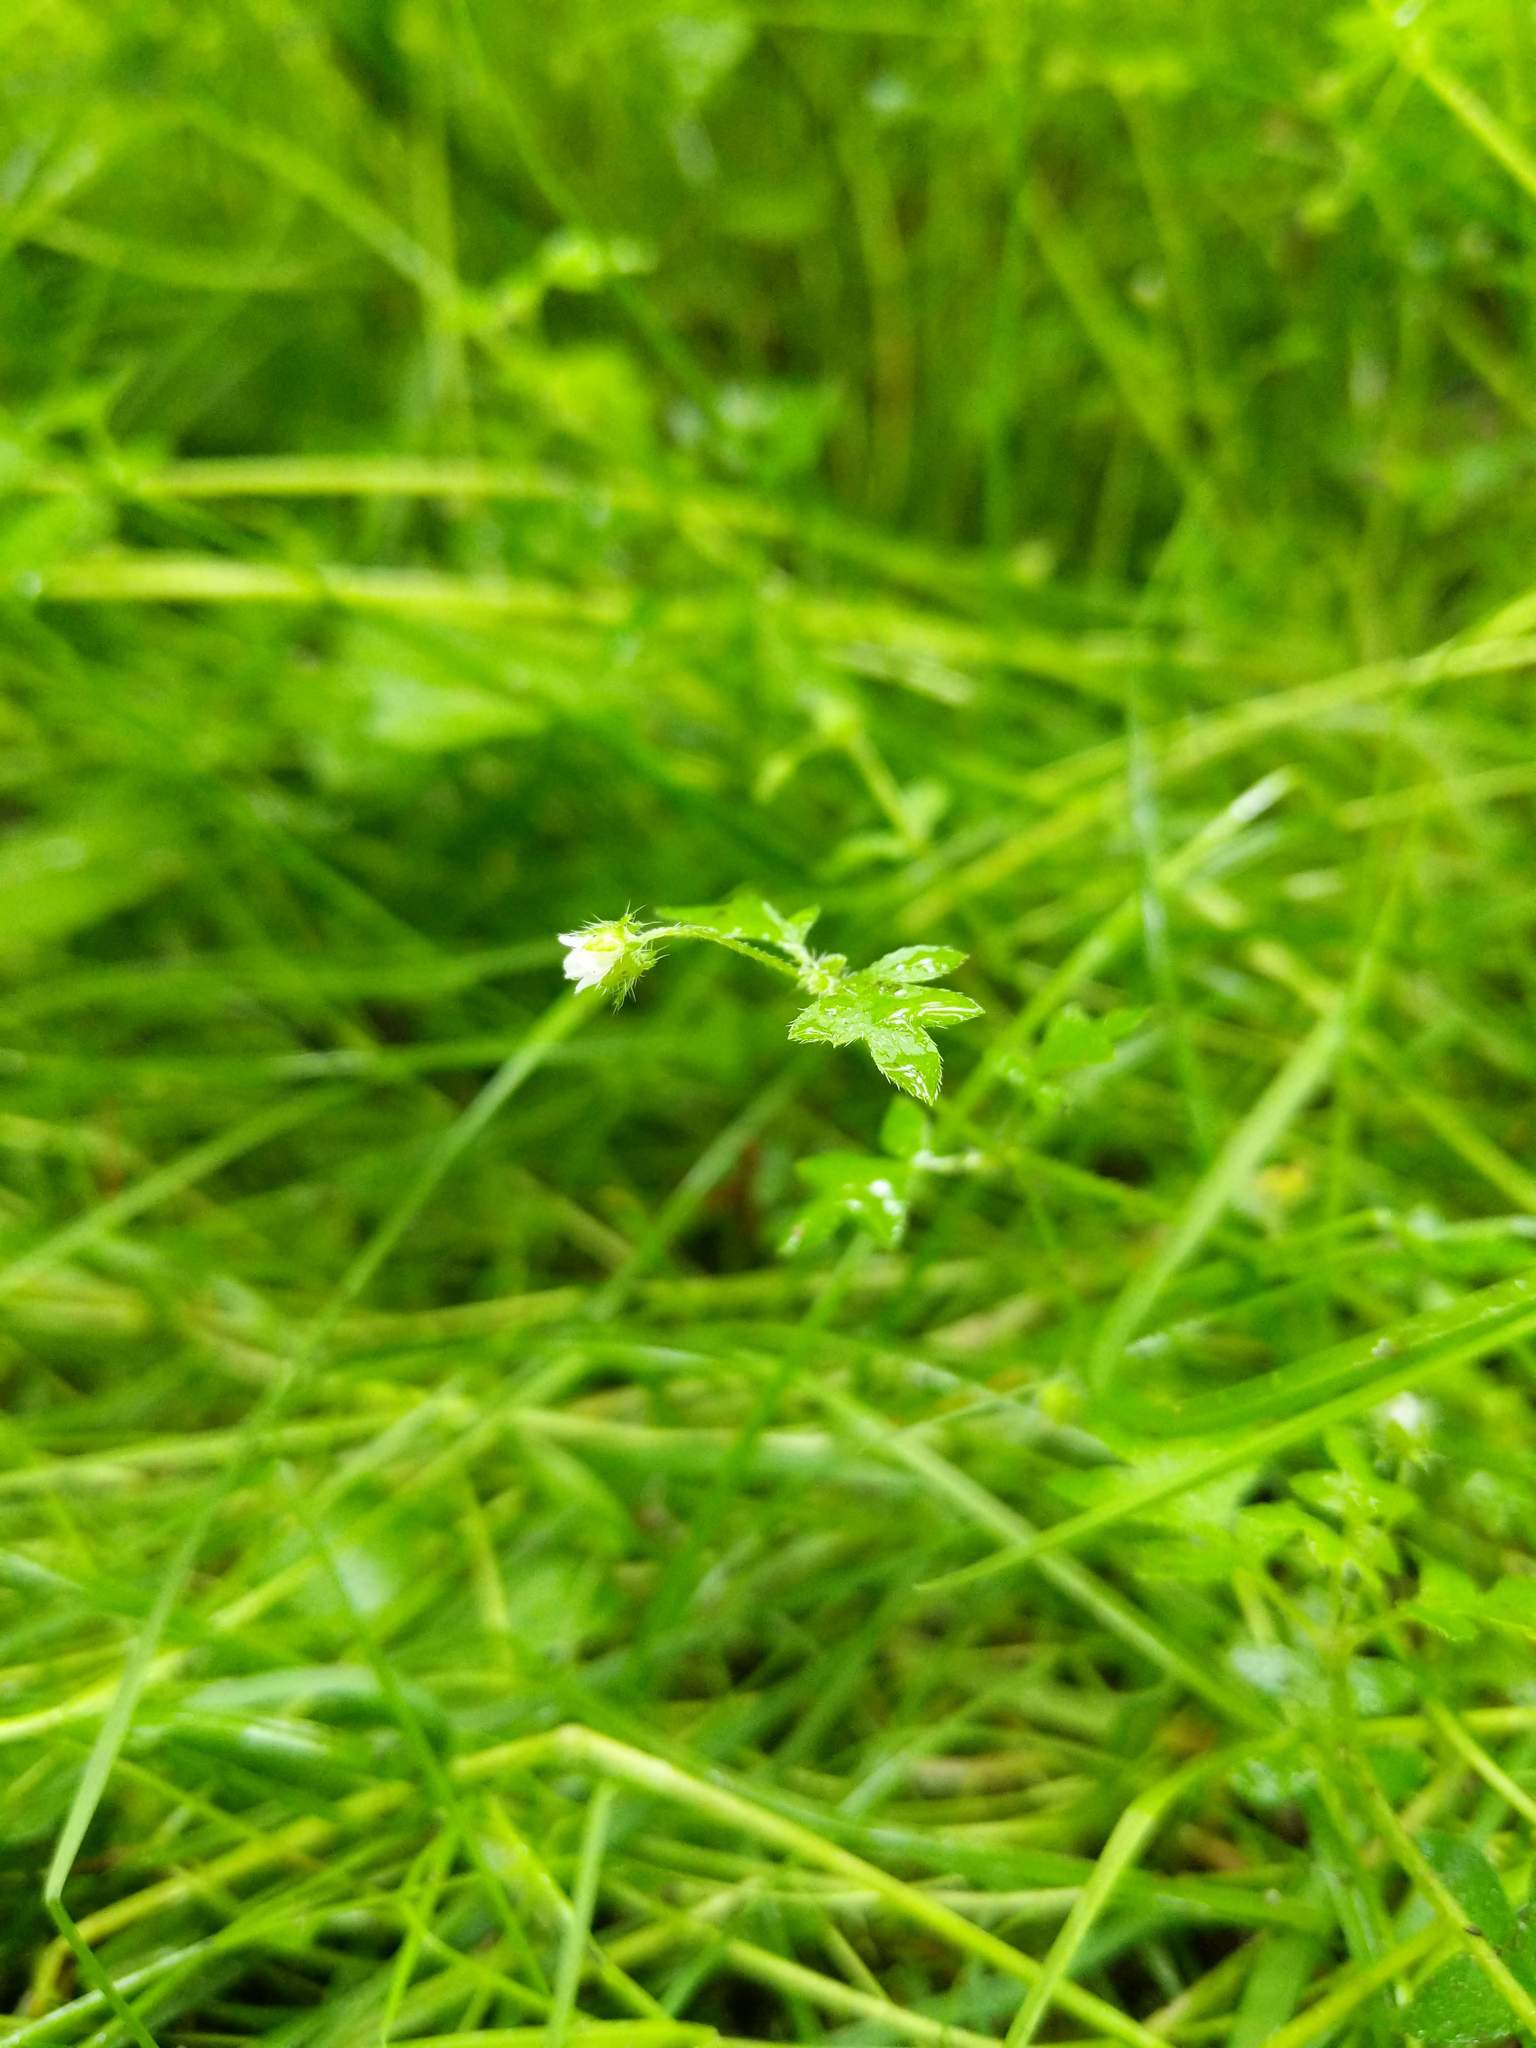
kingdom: Plantae
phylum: Tracheophyta
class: Magnoliopsida
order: Boraginales
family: Hydrophyllaceae
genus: Nemophila
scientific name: Nemophila parviflora
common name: Small-flowered baby-blue-eyes
